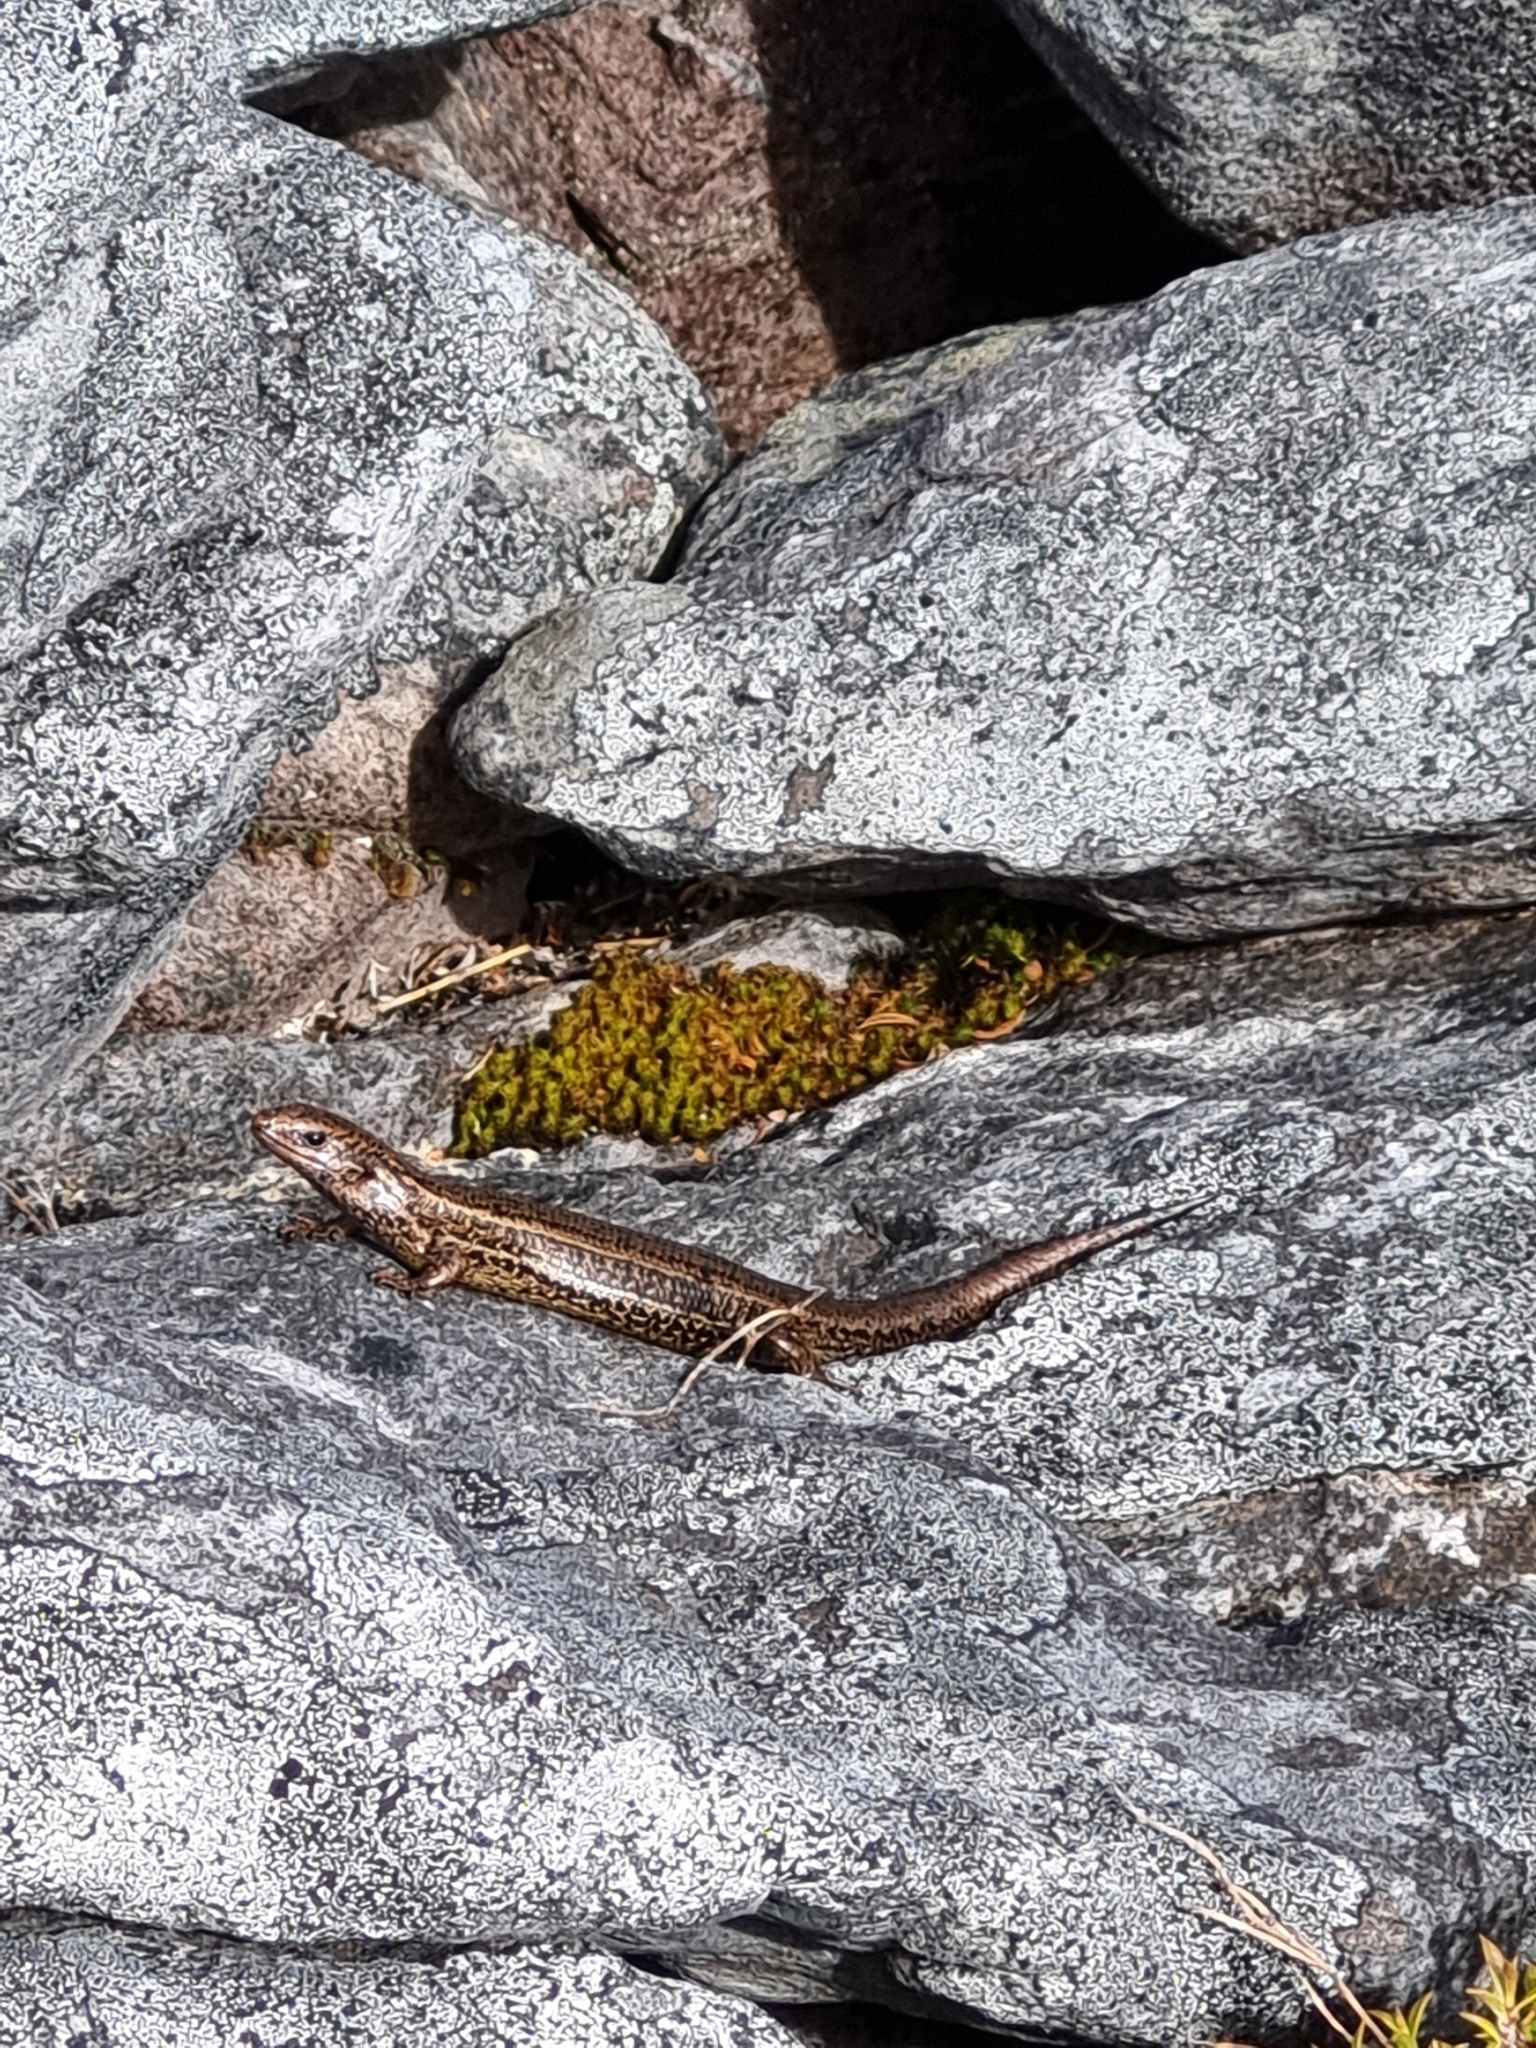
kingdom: Animalia
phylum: Chordata
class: Squamata
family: Scincidae
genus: Oligosoma
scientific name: Oligosoma newmani
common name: Newman’s speckled skink
